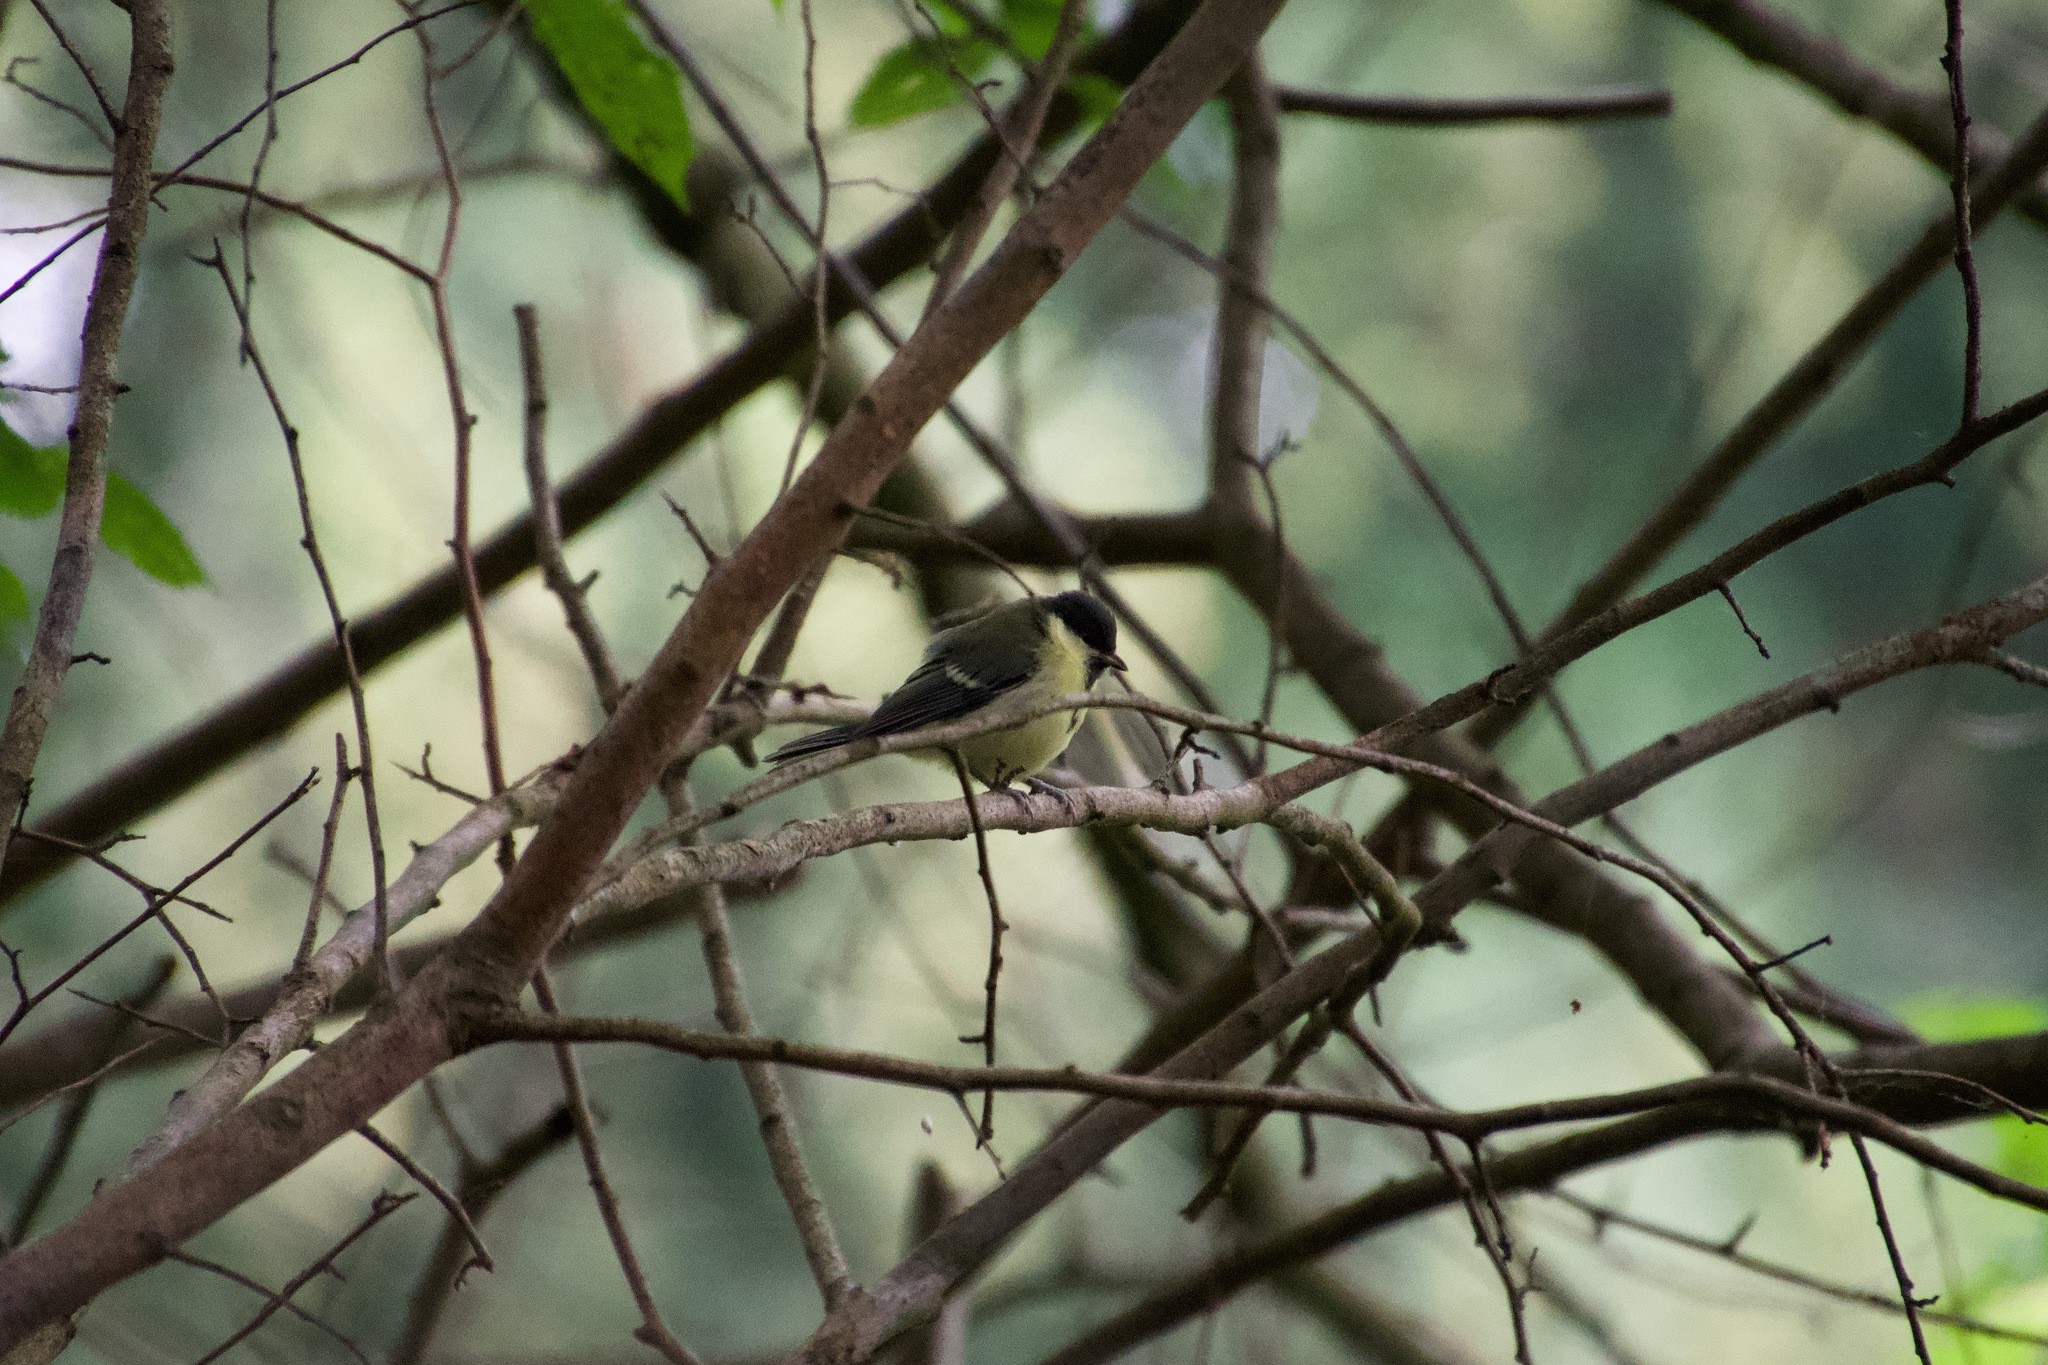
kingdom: Animalia
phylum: Chordata
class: Aves
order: Passeriformes
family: Paridae
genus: Parus
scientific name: Parus major
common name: Great tit
